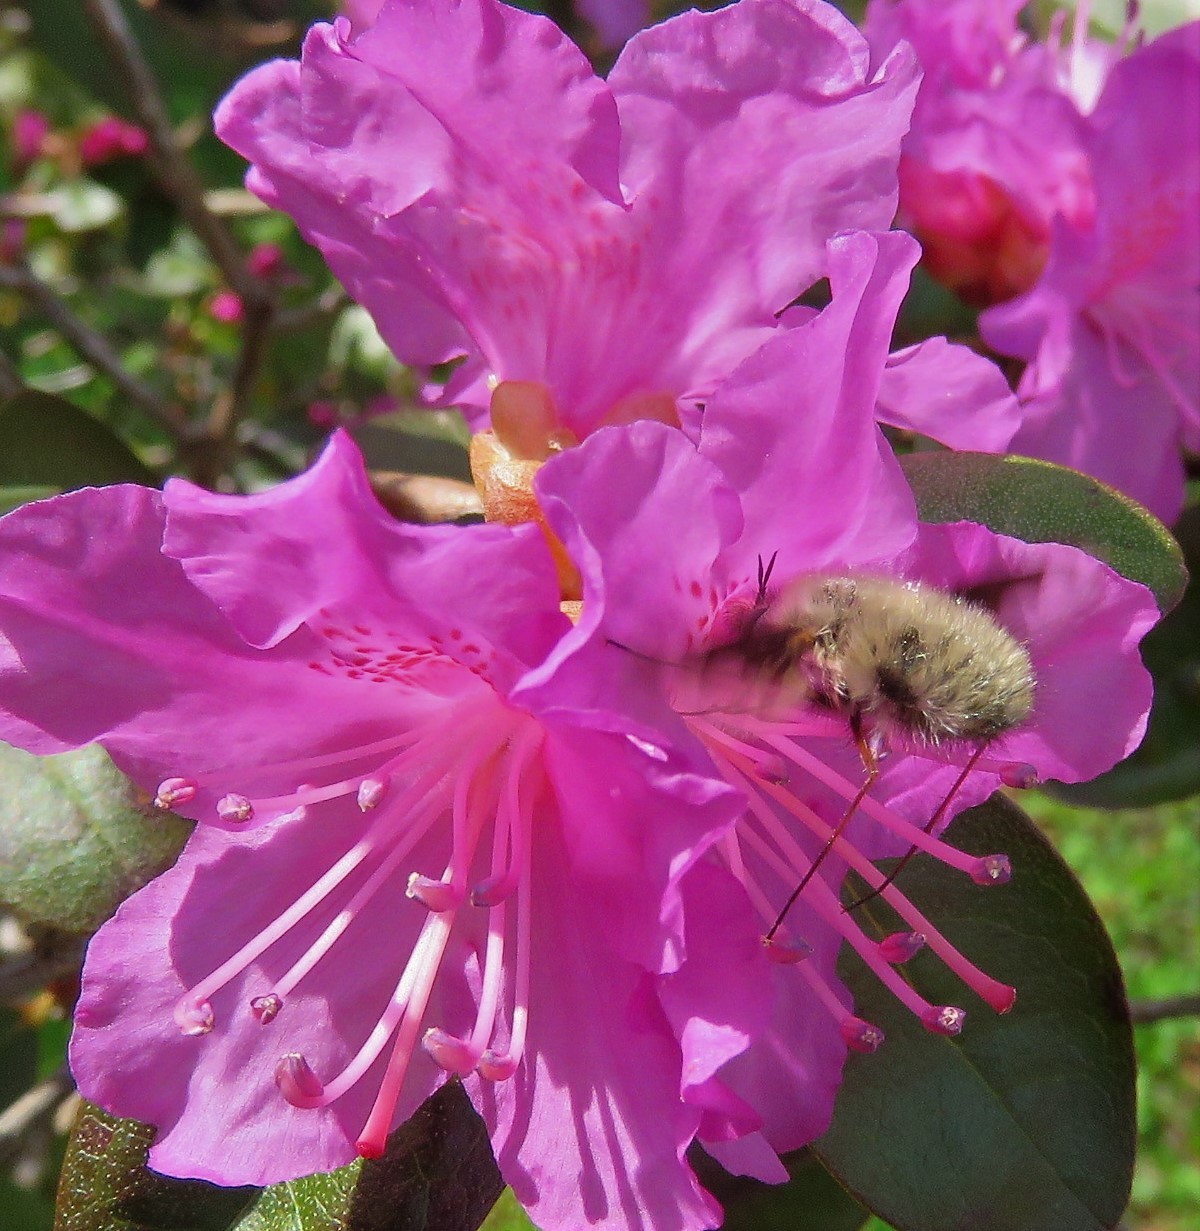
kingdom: Animalia
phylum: Arthropoda
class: Insecta
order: Diptera
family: Bombyliidae
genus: Bombylius
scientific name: Bombylius major
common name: Bee fly
